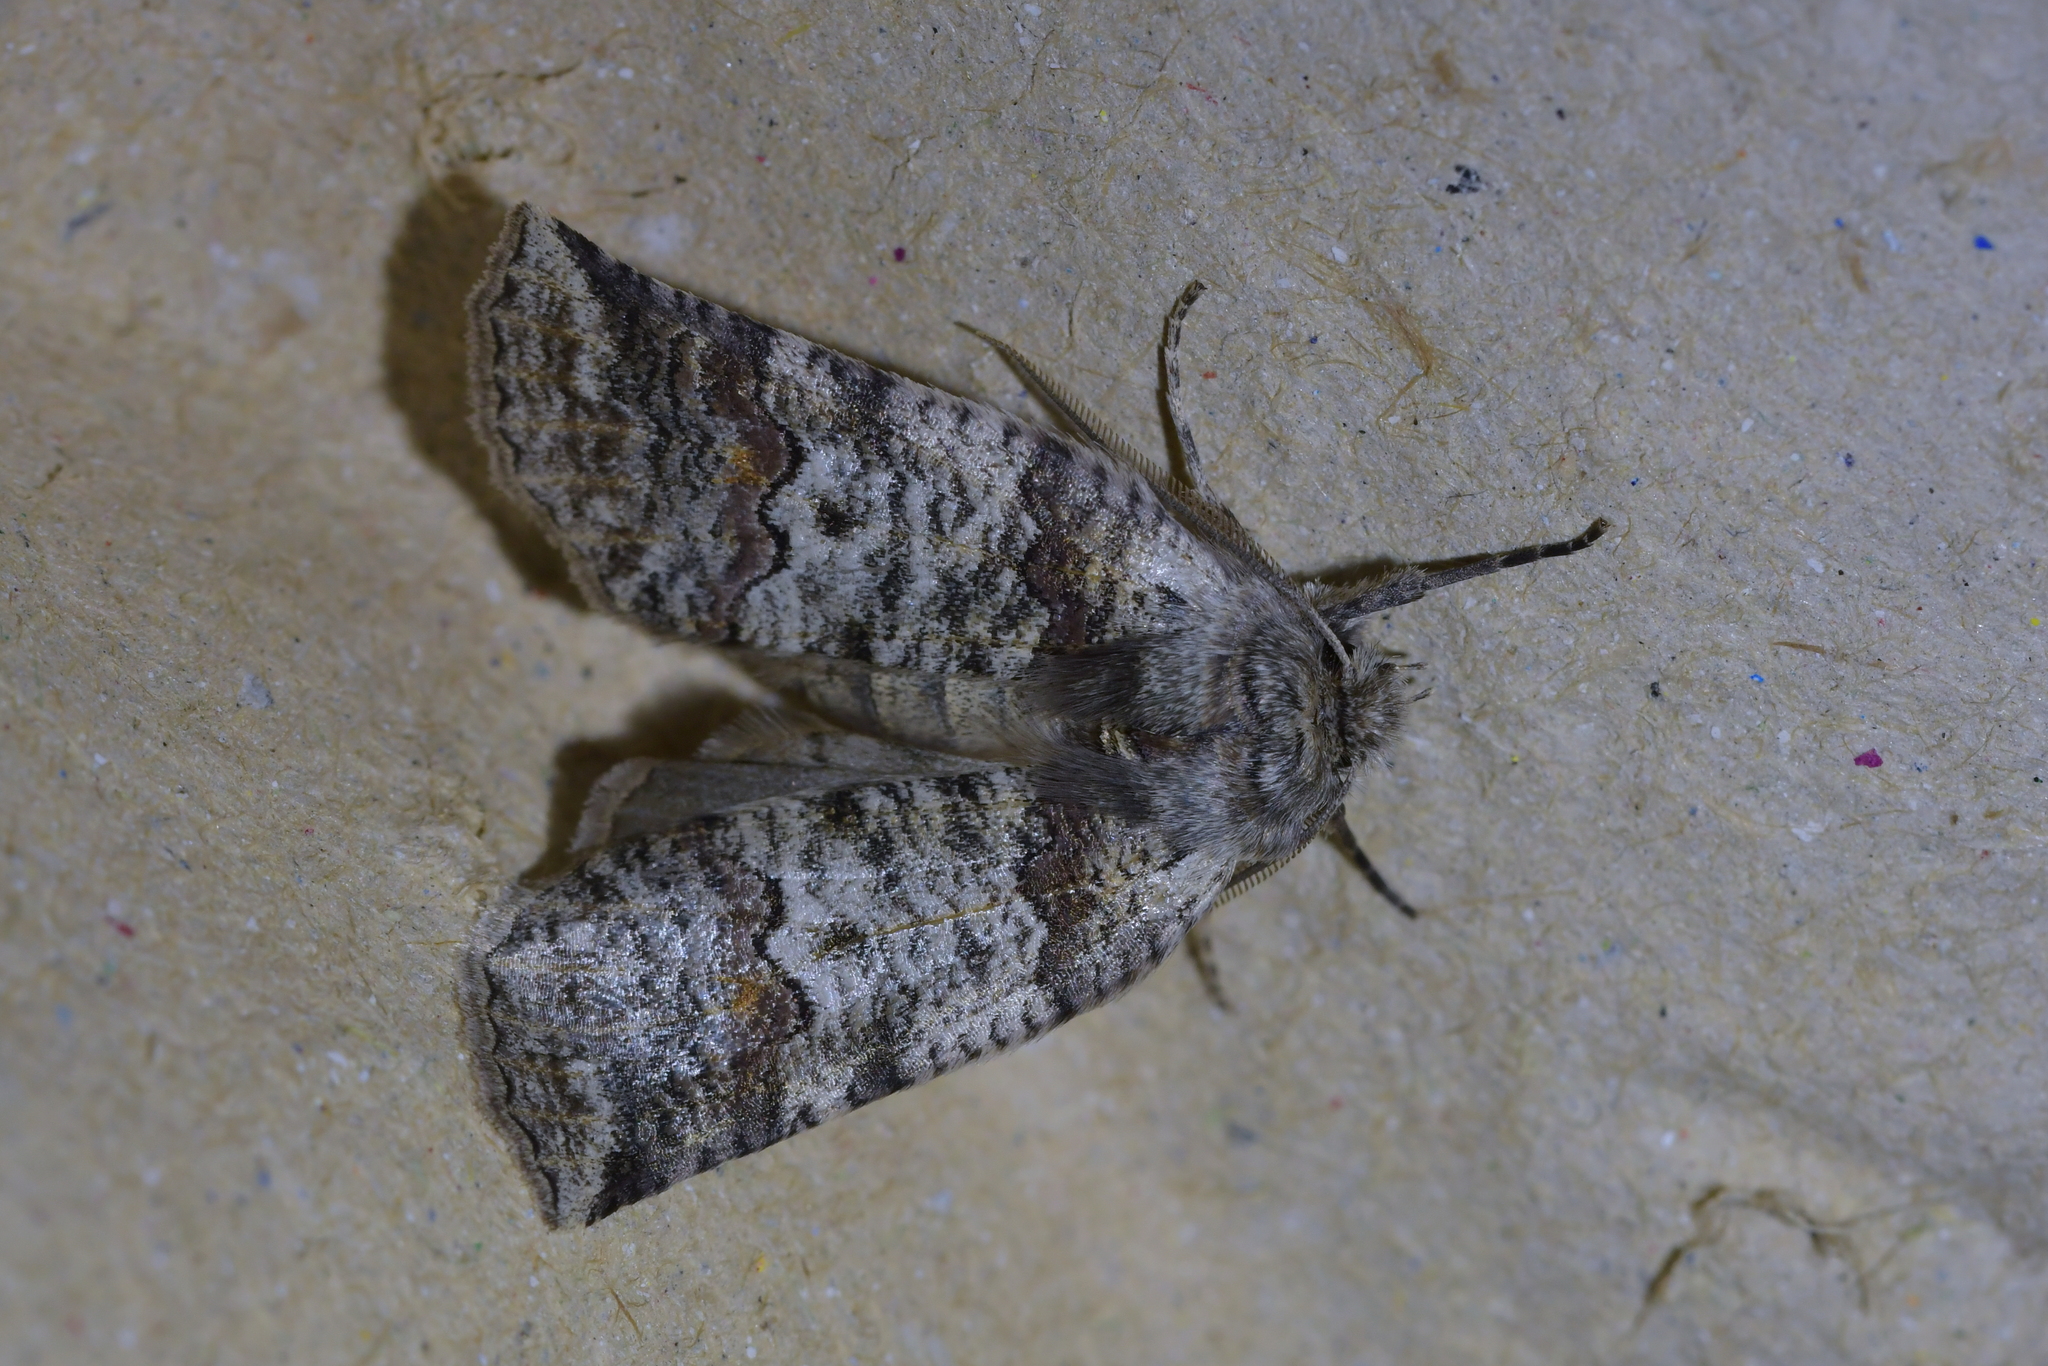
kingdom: Animalia
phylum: Arthropoda
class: Insecta
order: Lepidoptera
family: Geometridae
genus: Declana
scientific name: Declana
